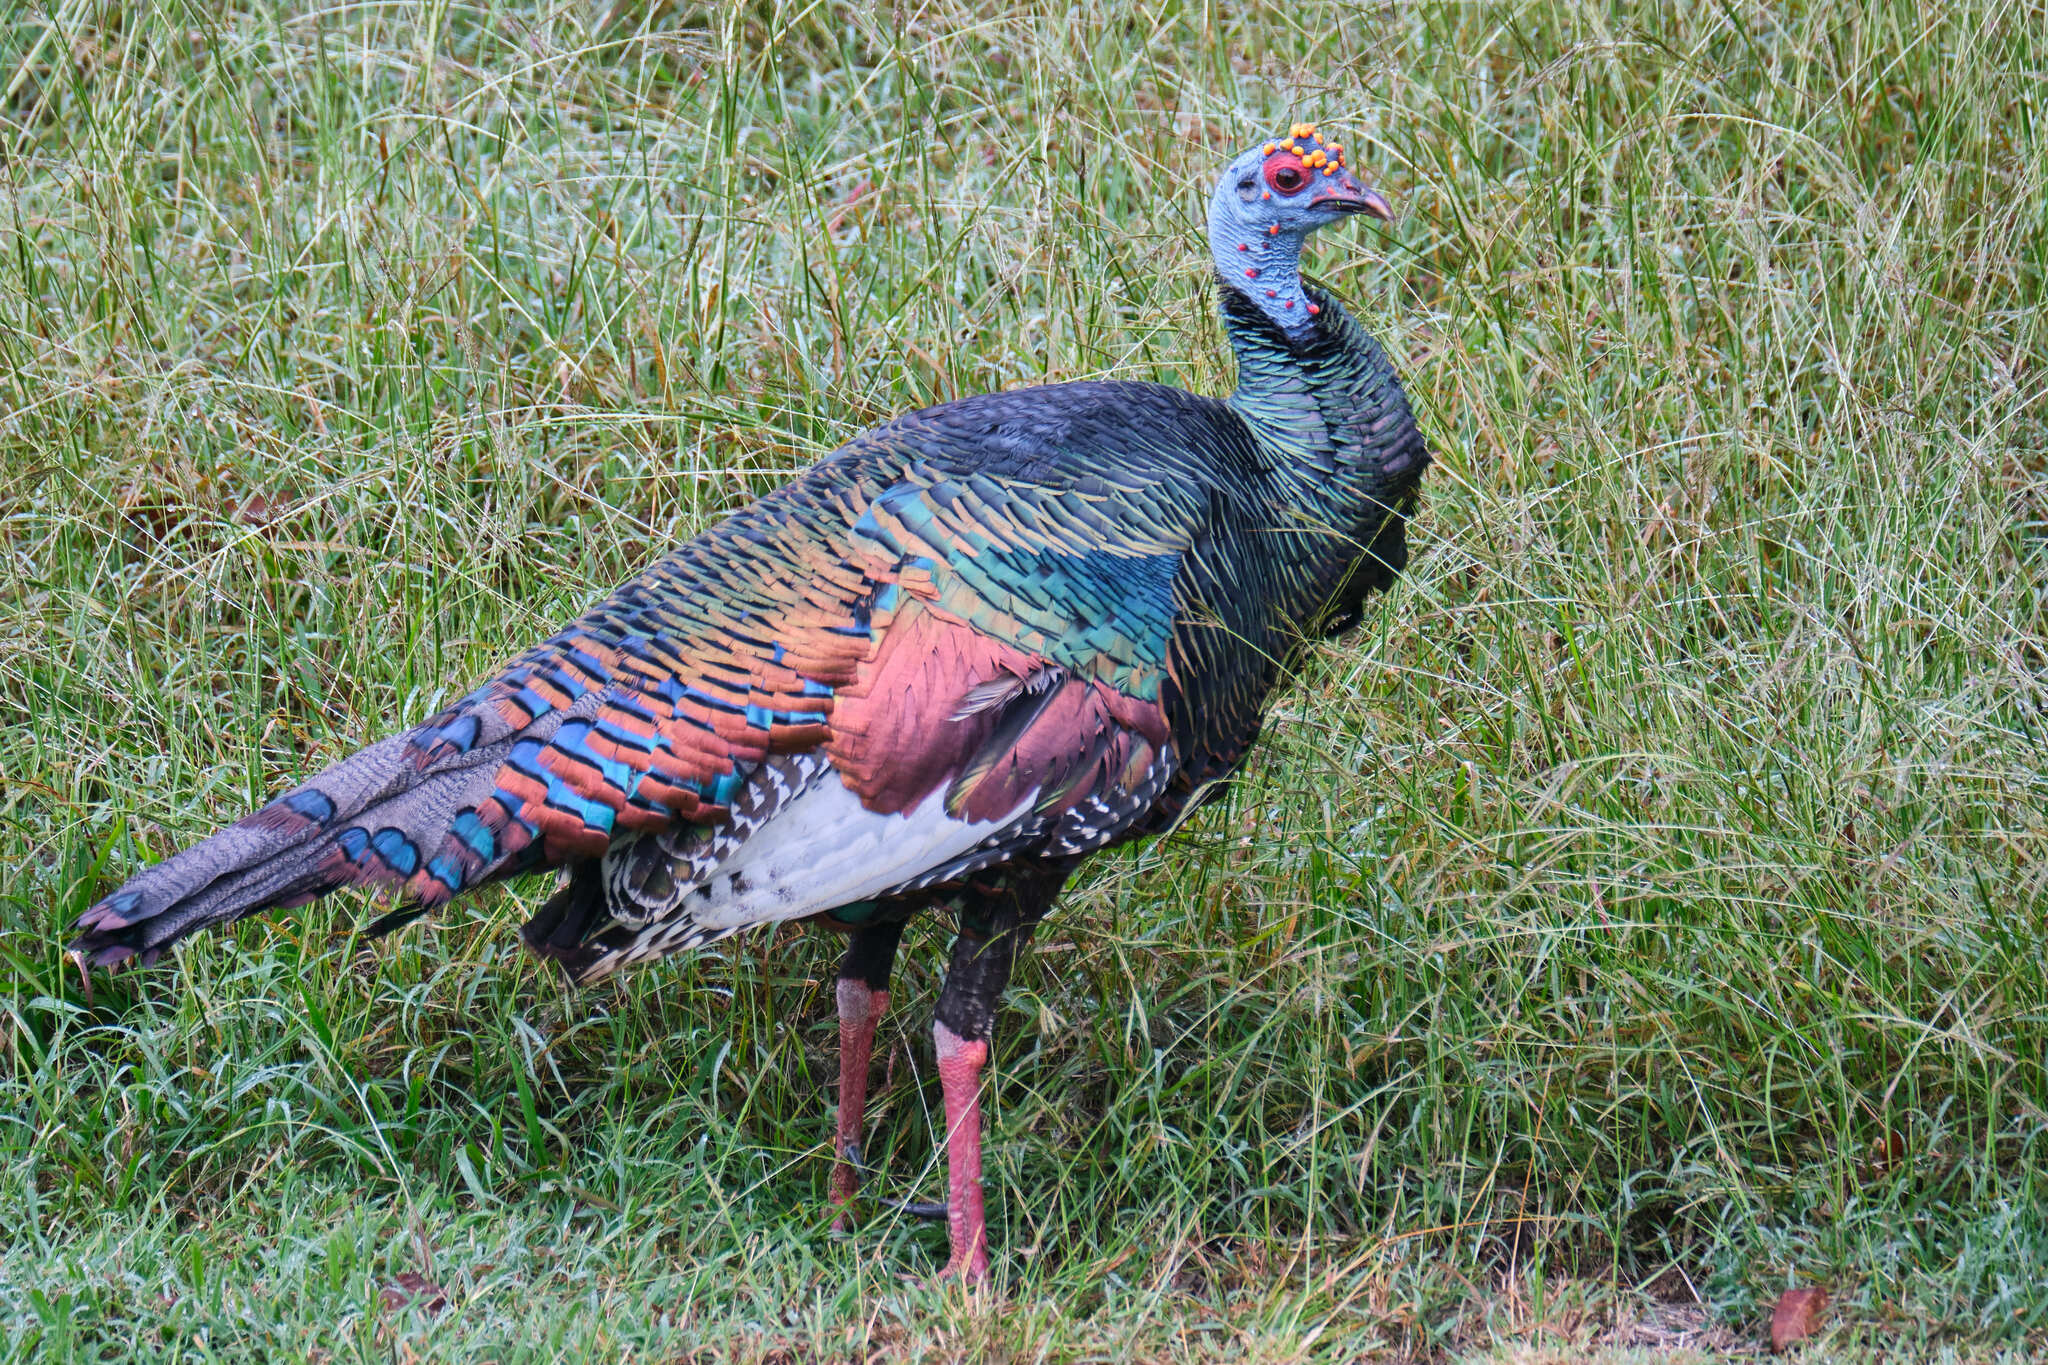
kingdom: Animalia
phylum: Chordata
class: Aves
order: Galliformes
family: Phasianidae
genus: Meleagris
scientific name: Meleagris ocellata
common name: Ocellated turkey
